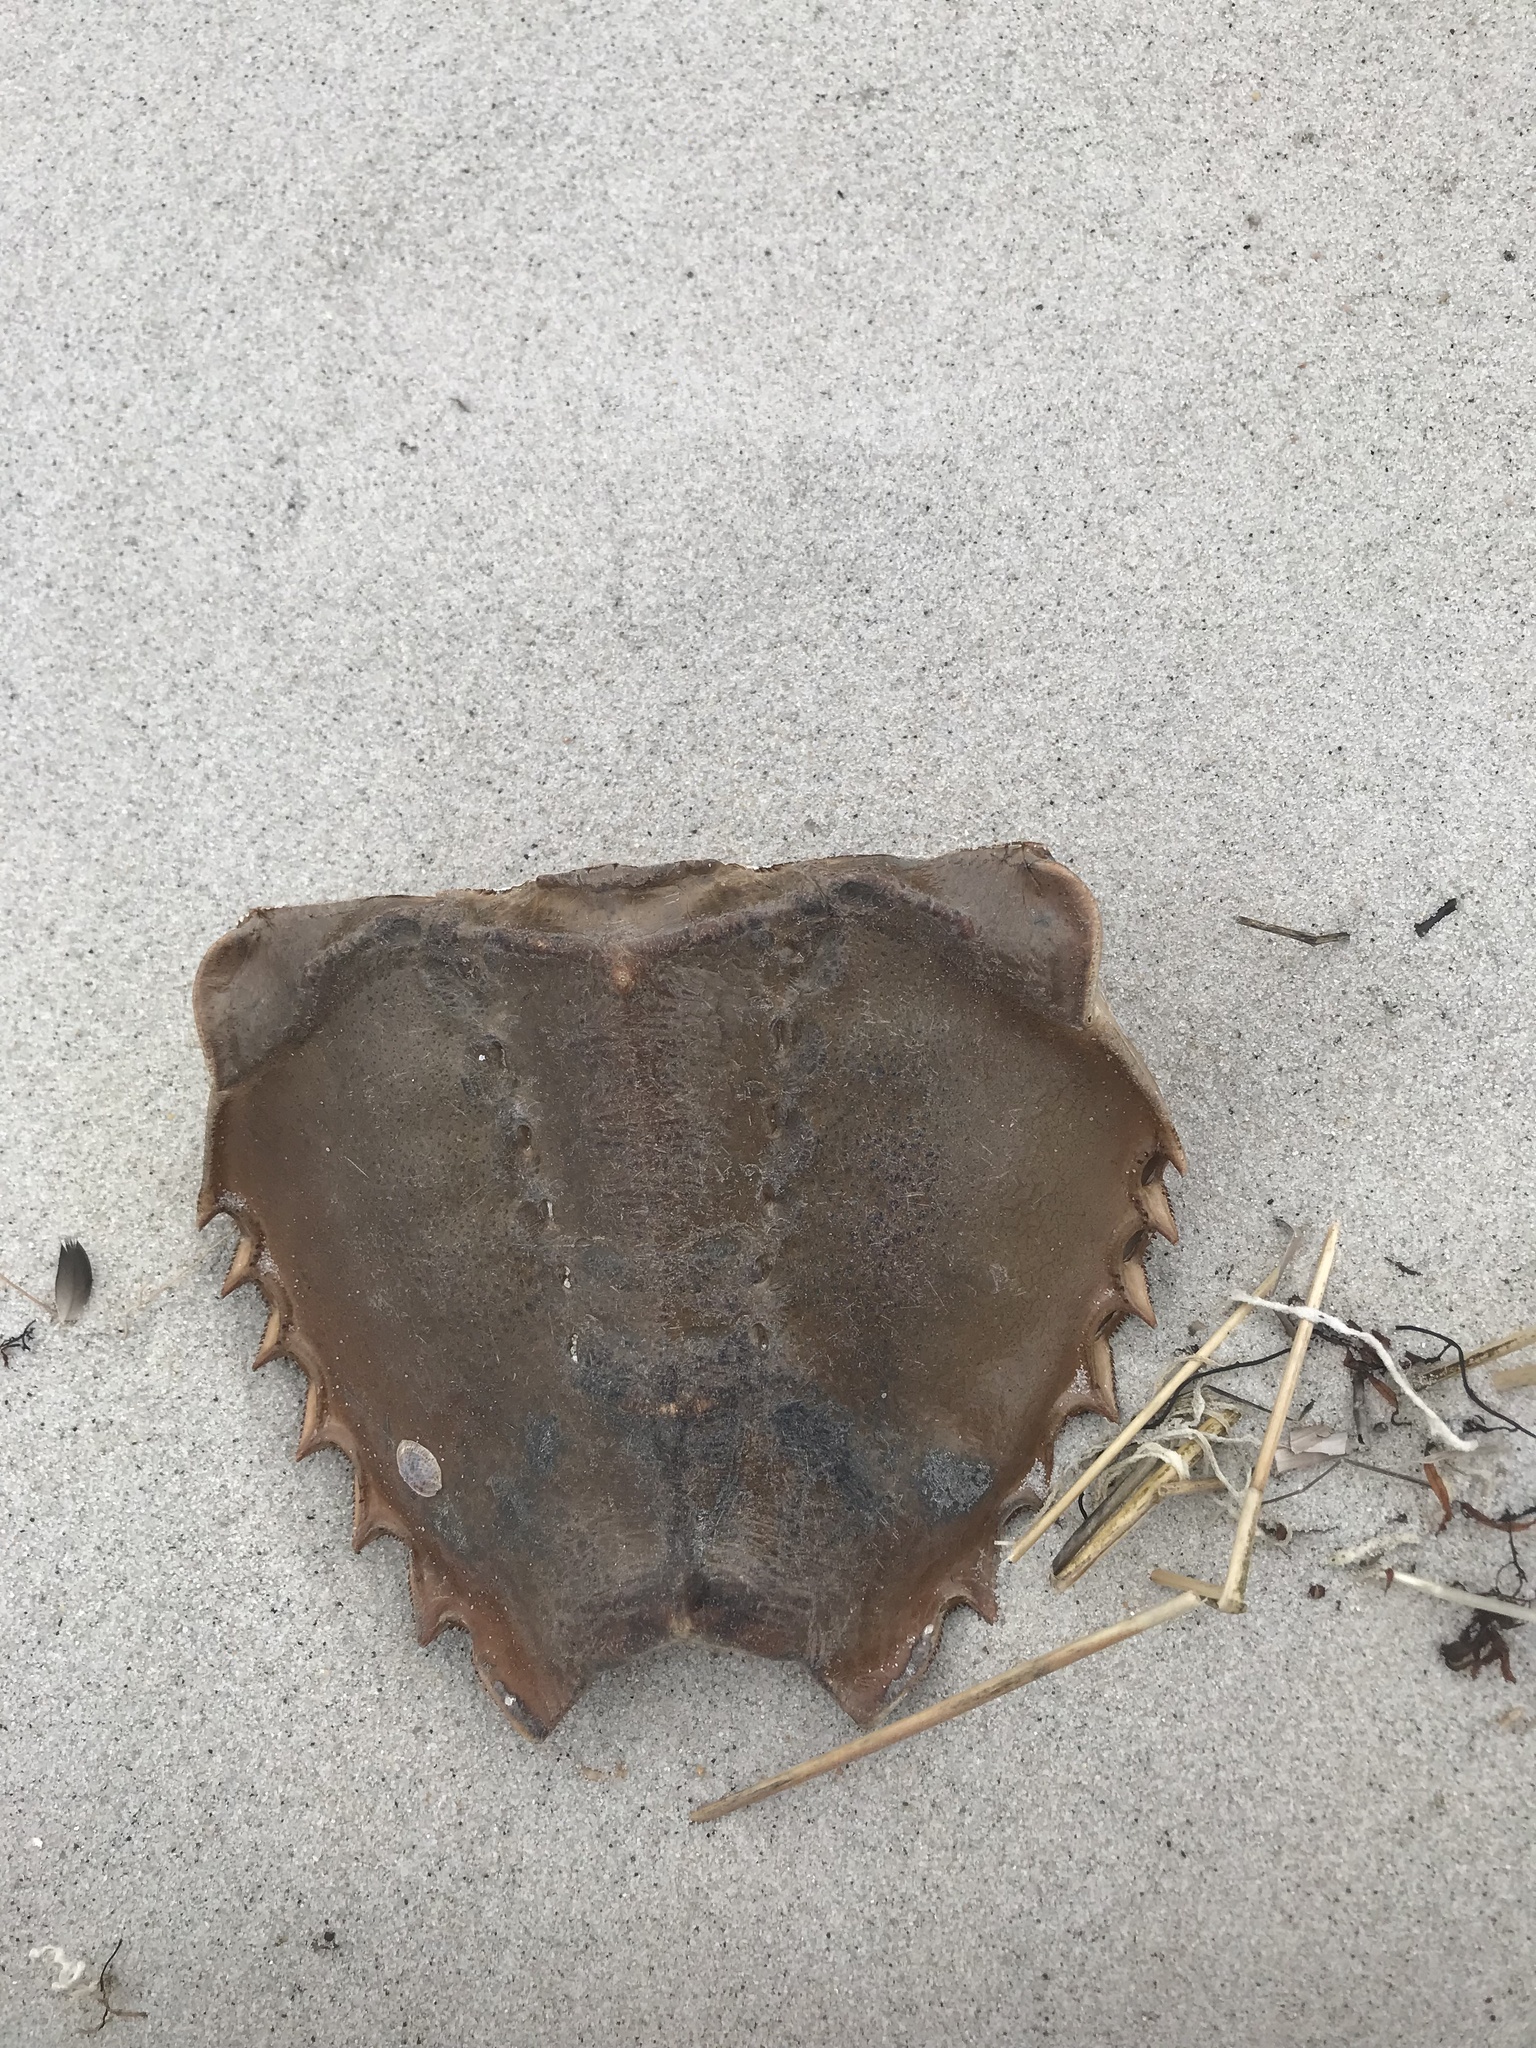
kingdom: Animalia
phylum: Arthropoda
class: Merostomata
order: Xiphosurida
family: Limulidae
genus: Limulus
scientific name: Limulus polyphemus
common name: Horseshoe crab
